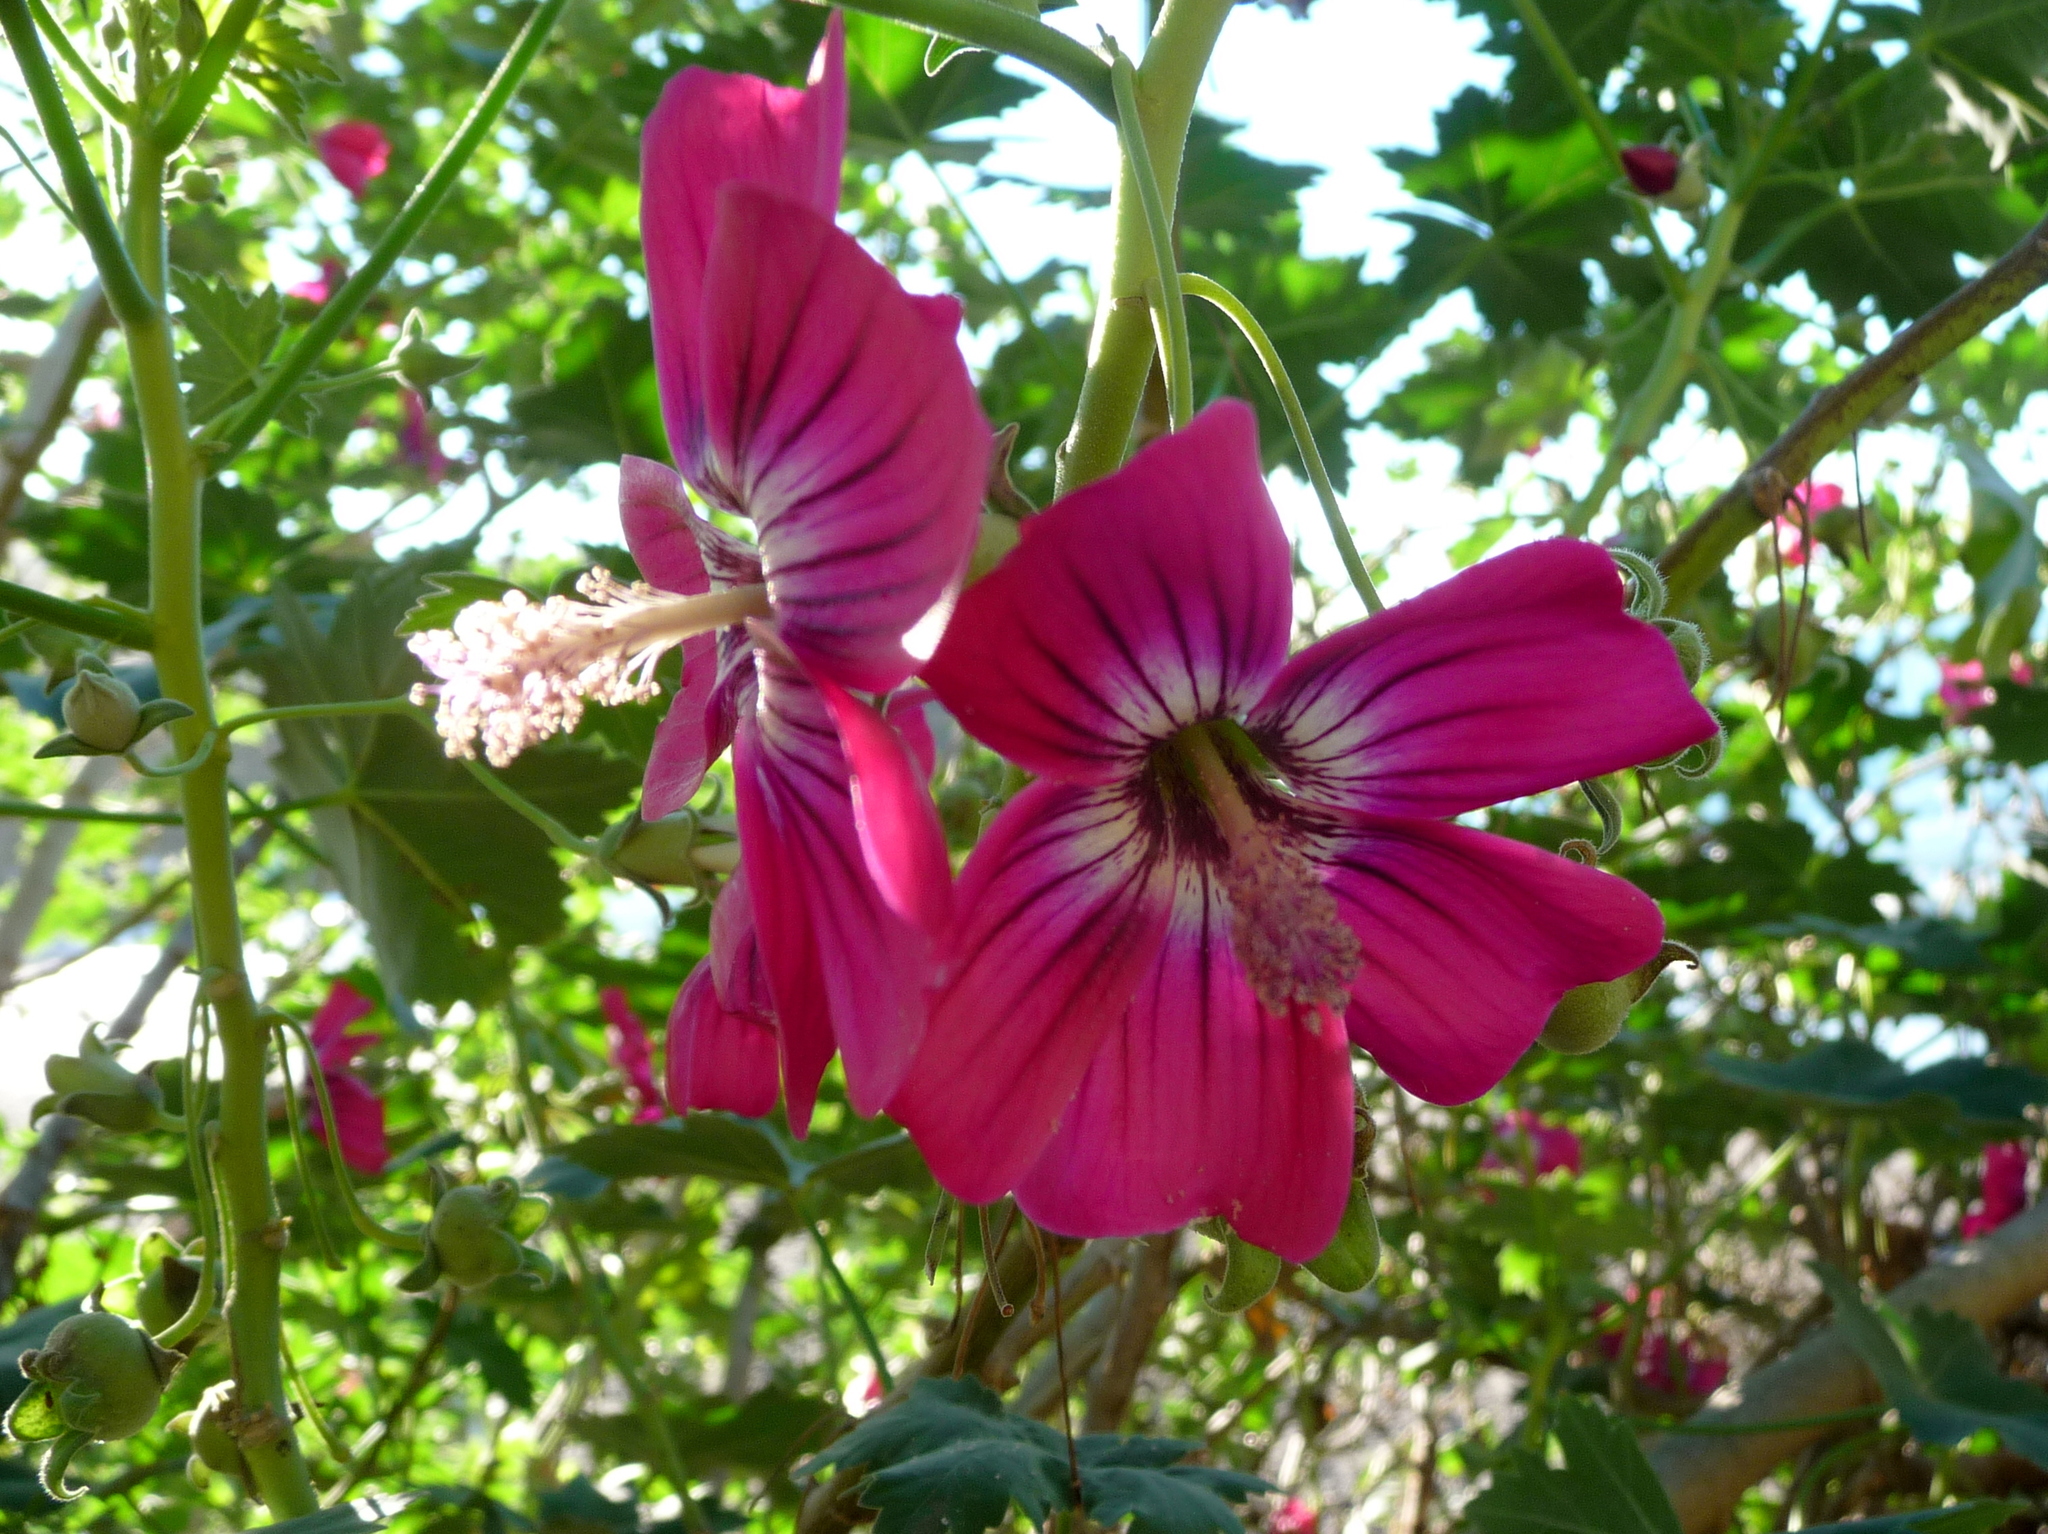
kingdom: Plantae
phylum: Tracheophyta
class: Magnoliopsida
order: Malvales
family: Malvaceae
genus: Malva
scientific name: Malva assurgentiflora
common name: Island mallow
